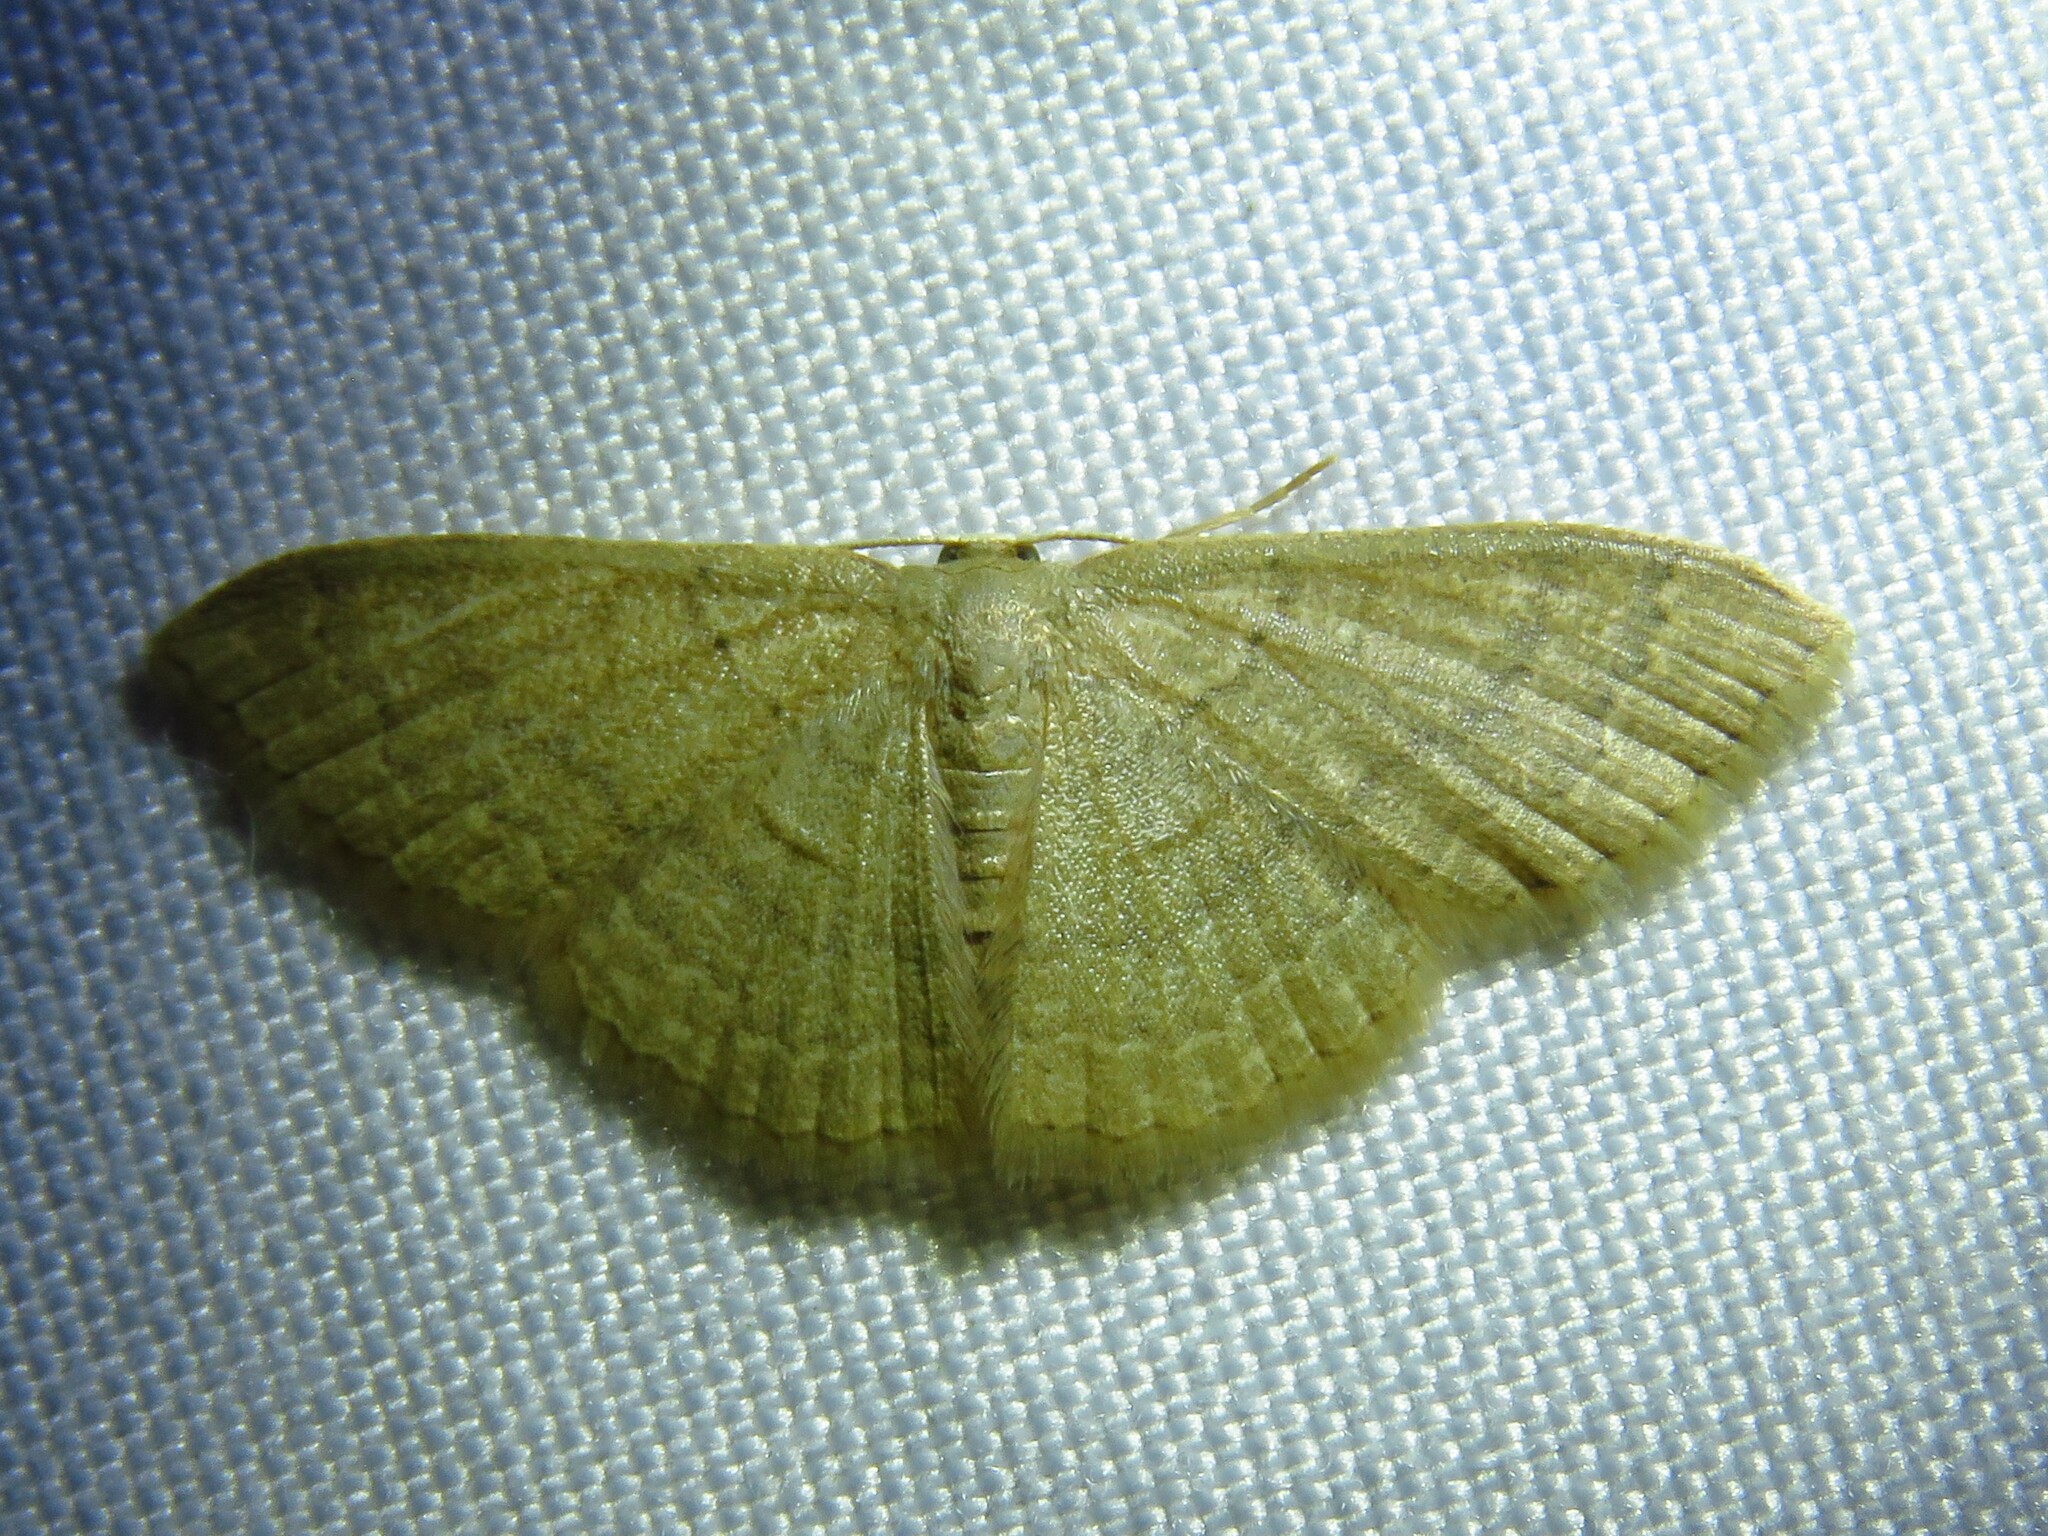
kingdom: Animalia
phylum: Arthropoda
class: Insecta
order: Lepidoptera
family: Geometridae
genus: Pleuroprucha
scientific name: Pleuroprucha insulsaria
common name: Common tan wave
